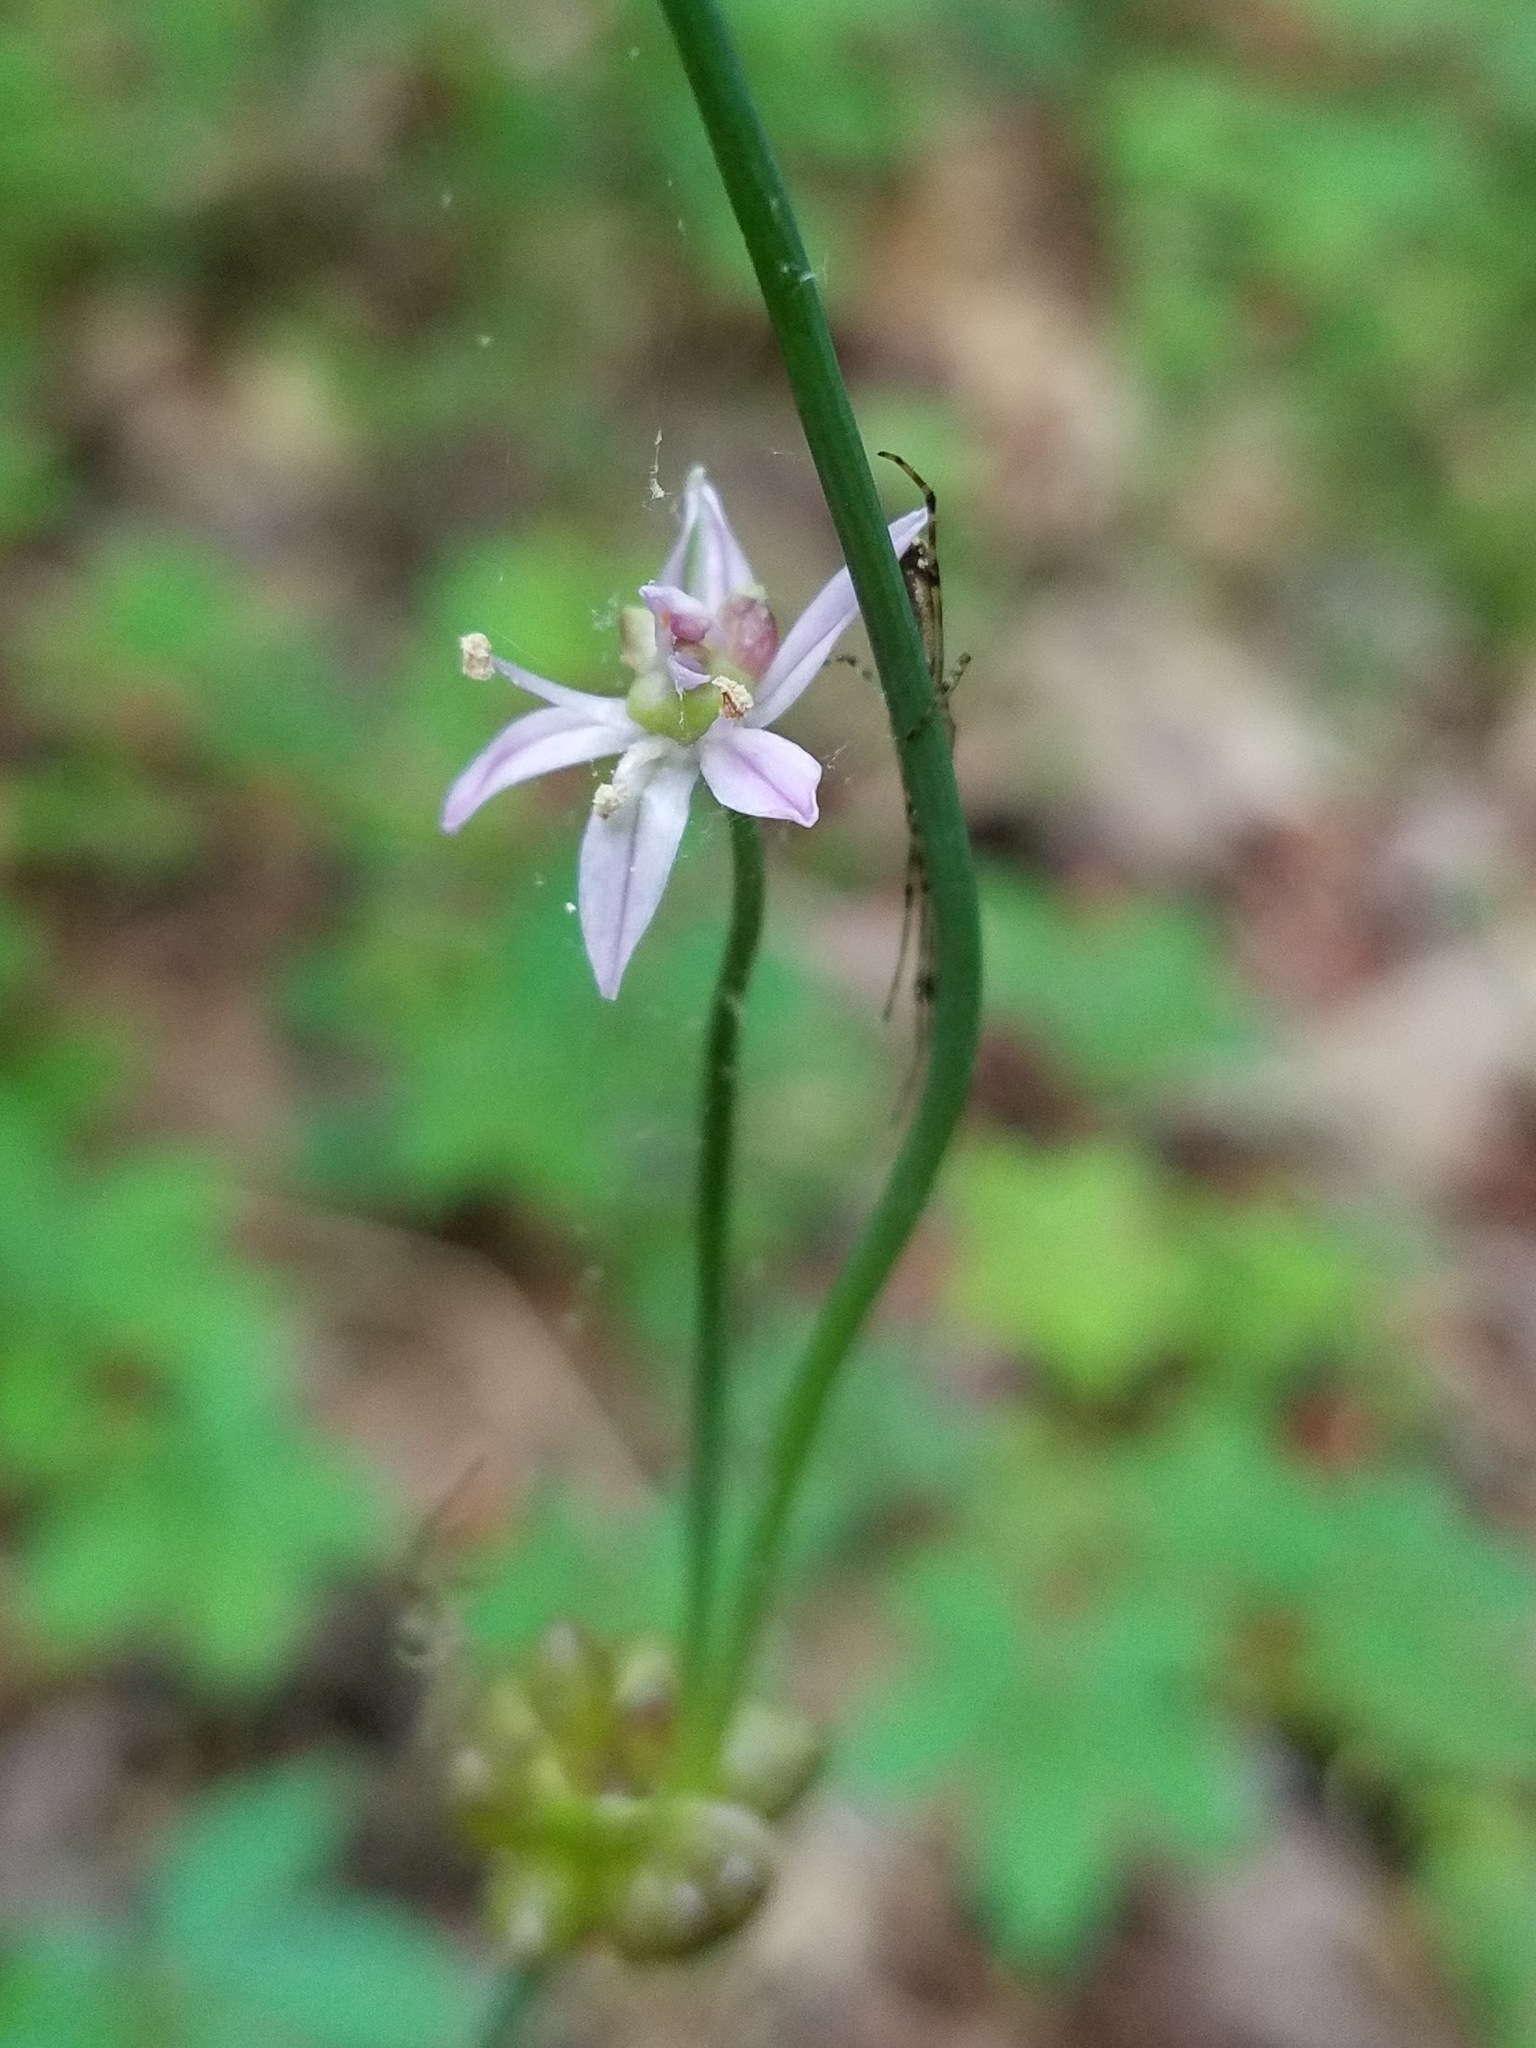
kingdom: Plantae
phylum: Tracheophyta
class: Liliopsida
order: Asparagales
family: Amaryllidaceae
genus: Allium
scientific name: Allium canadense
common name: Meadow garlic
